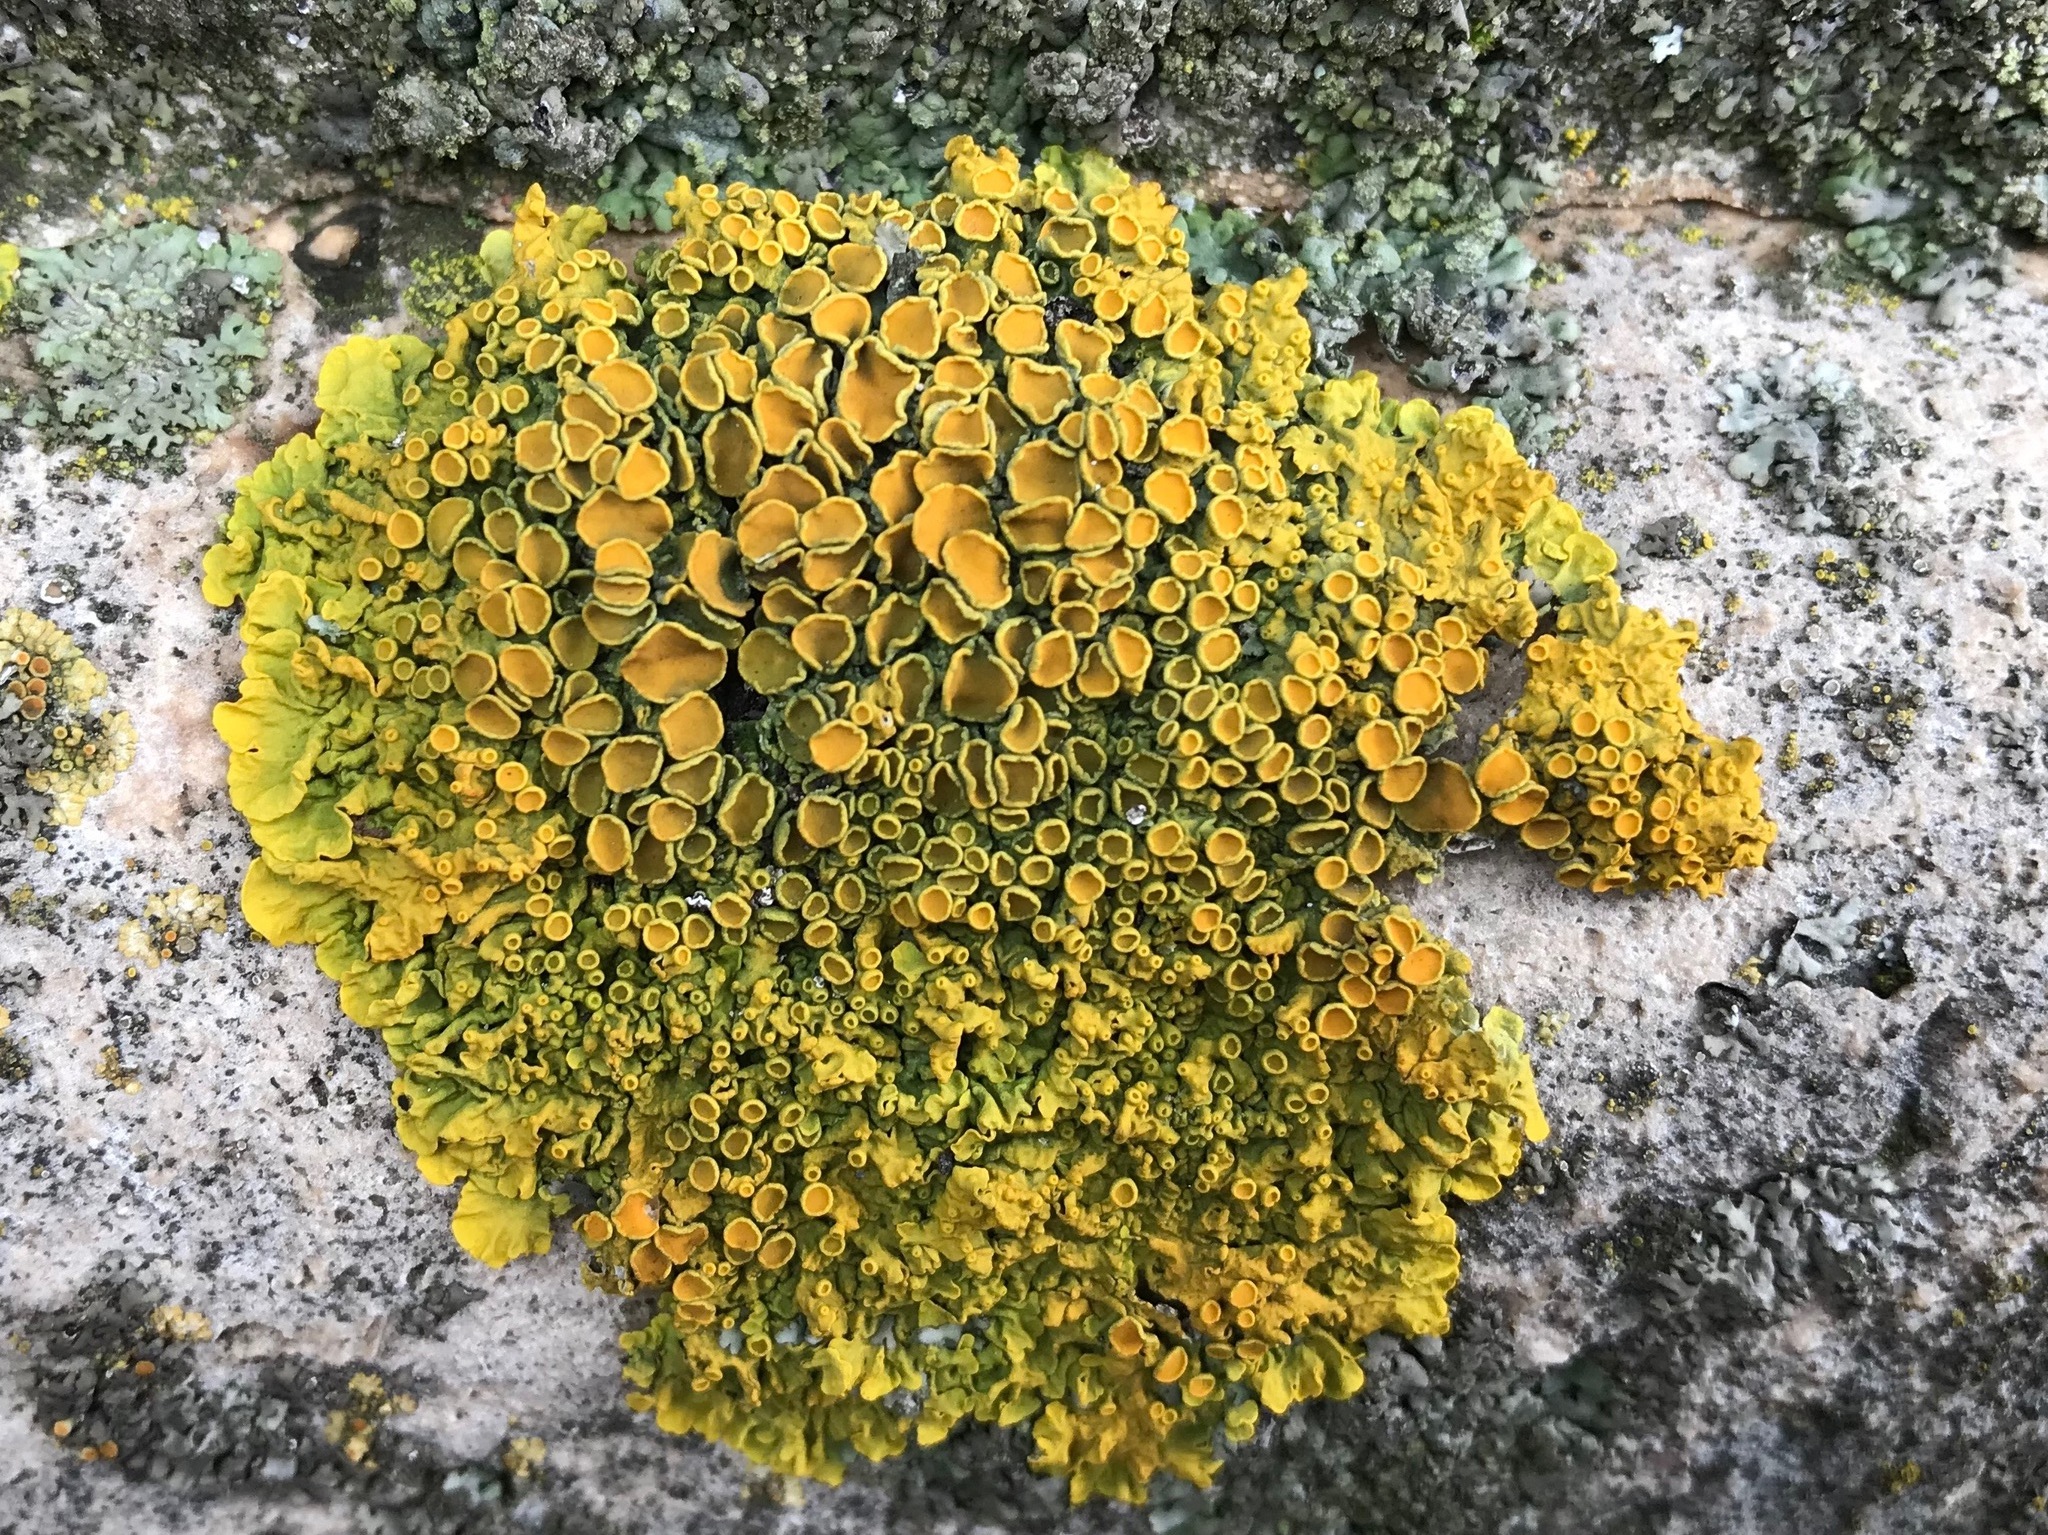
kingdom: Fungi
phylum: Ascomycota
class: Lecanoromycetes
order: Teloschistales
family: Teloschistaceae
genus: Xanthoria
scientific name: Xanthoria parietina
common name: Common orange lichen
